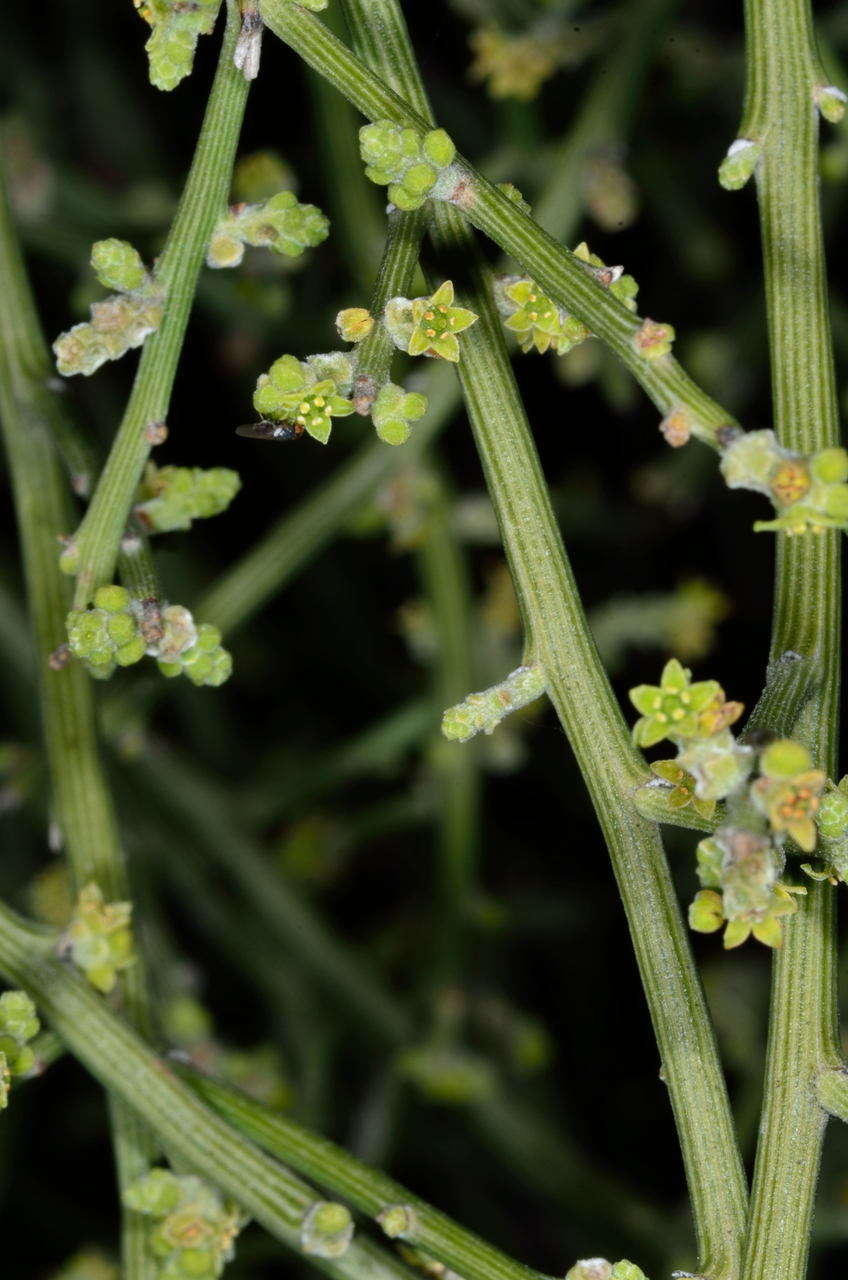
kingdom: Plantae
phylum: Tracheophyta
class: Magnoliopsida
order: Santalales
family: Santalaceae
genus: Exocarpos
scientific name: Exocarpos aphyllus
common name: Leafless ballart
